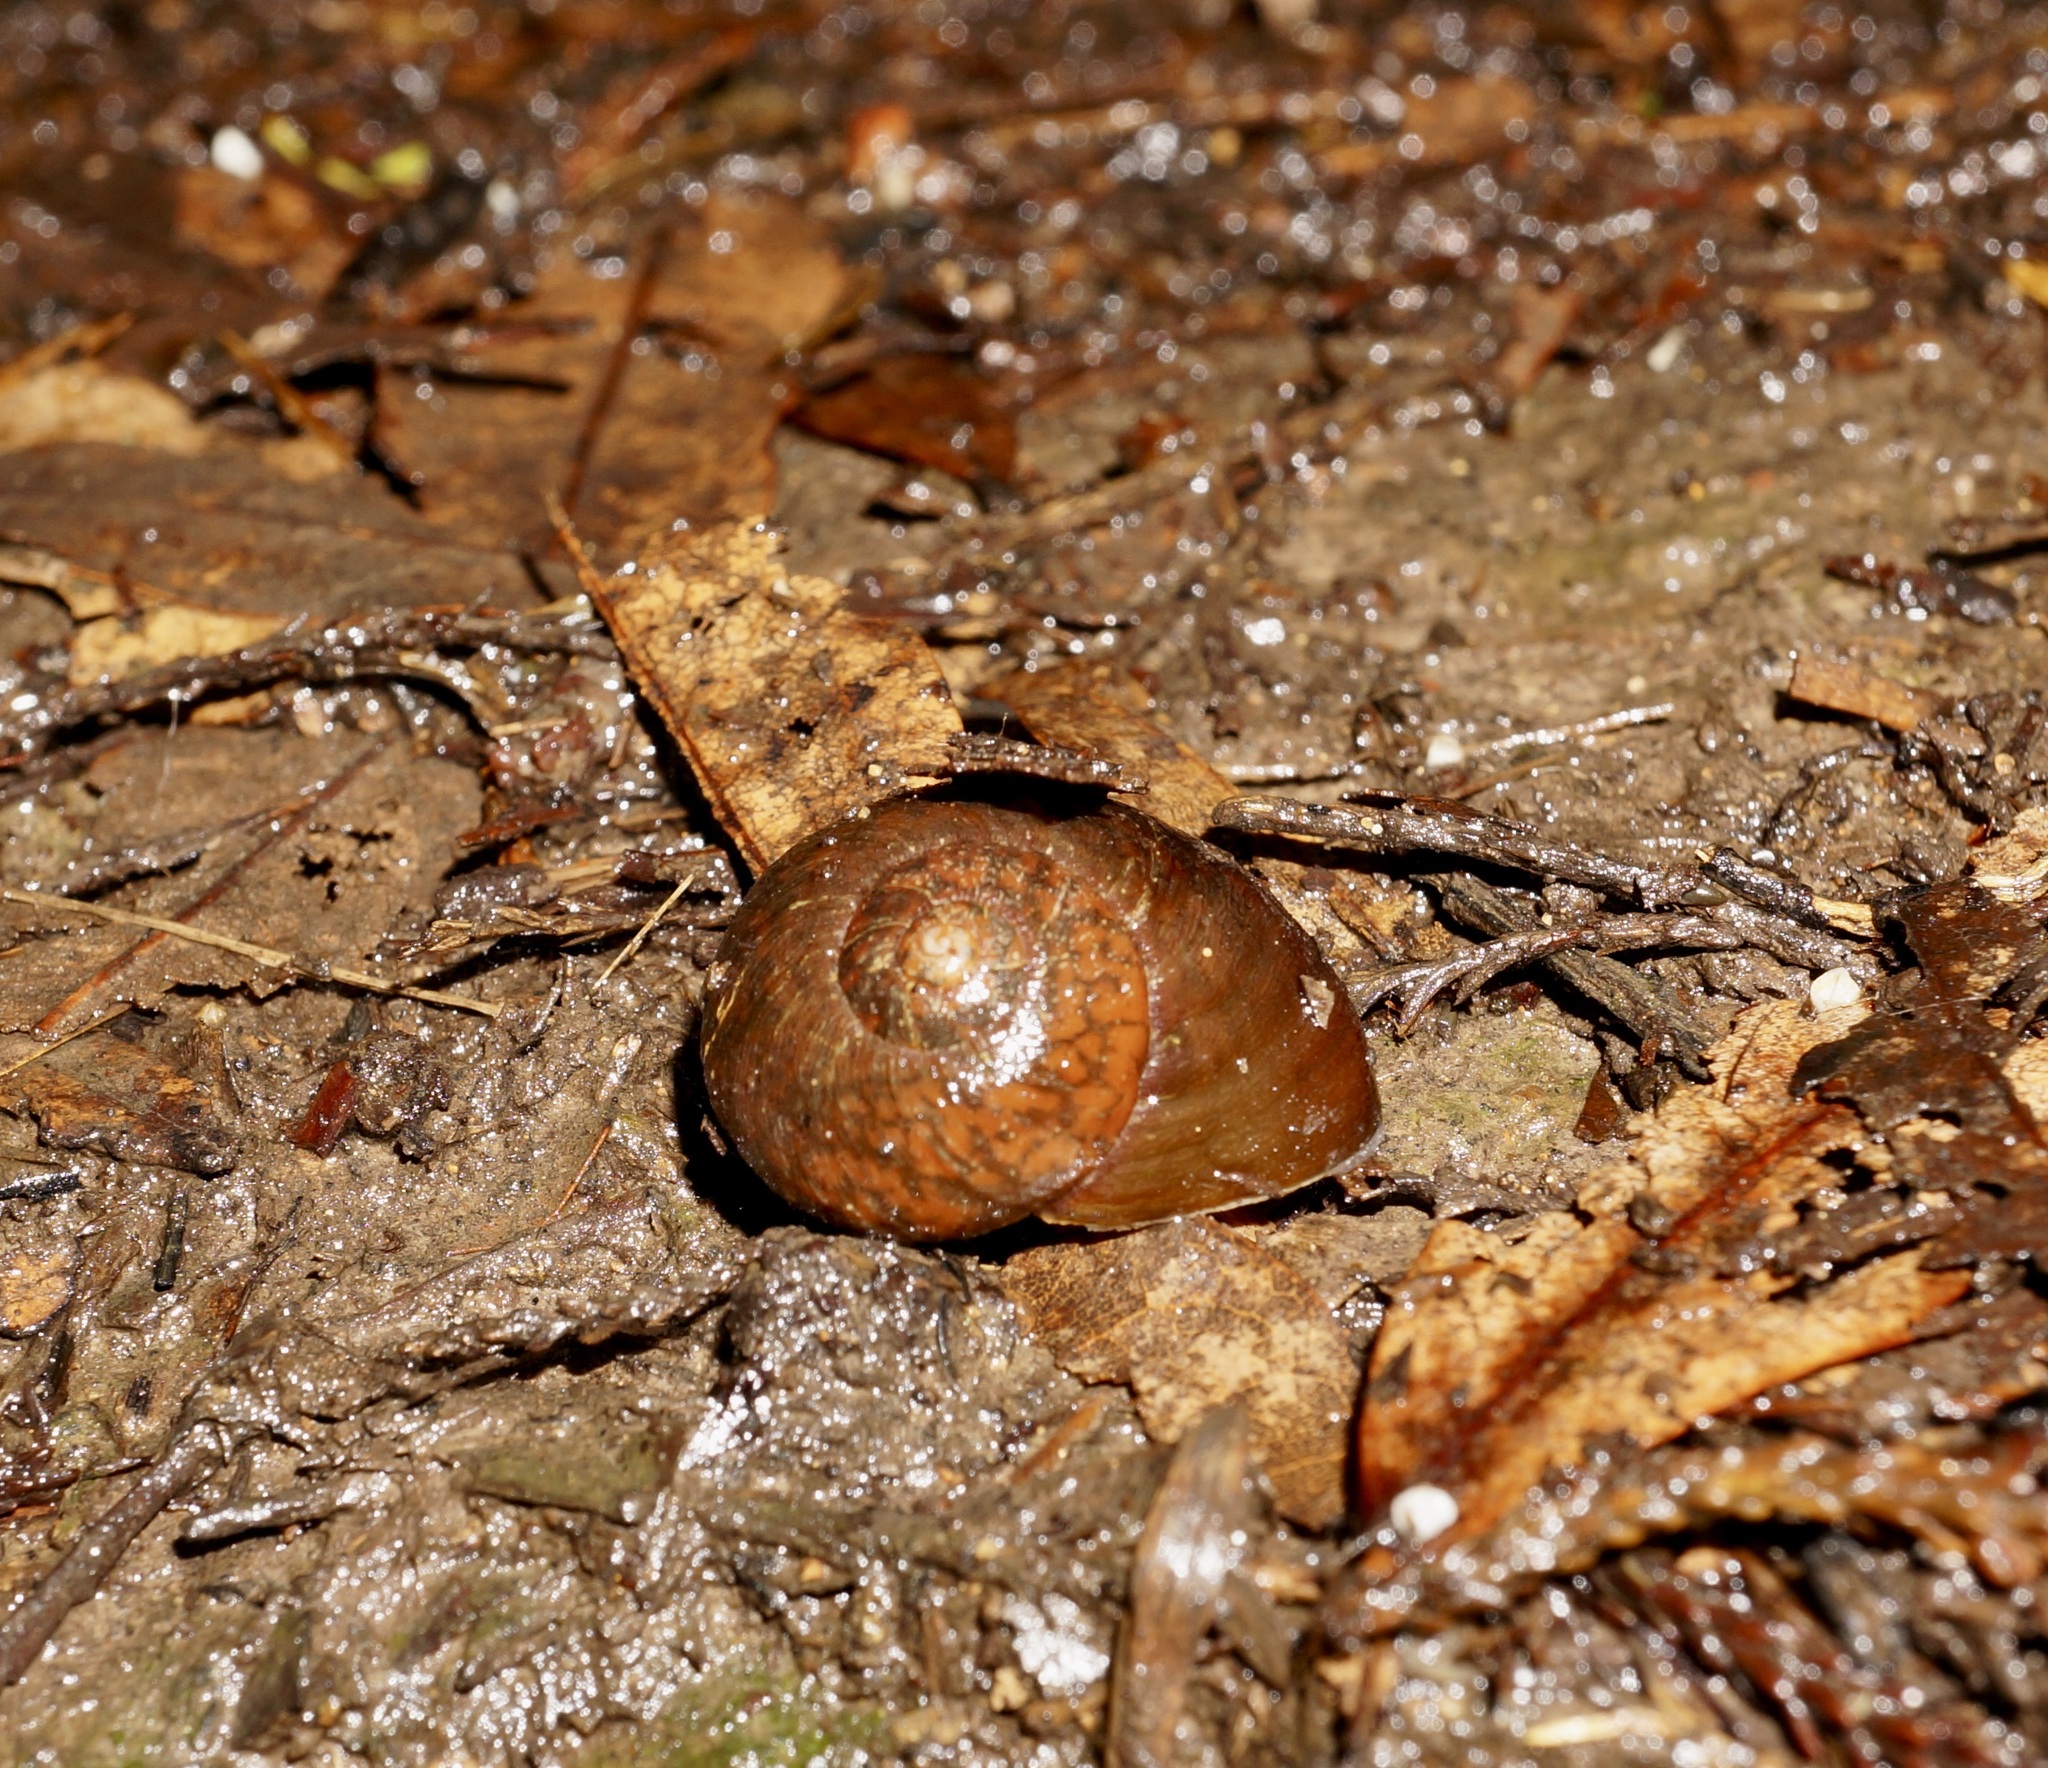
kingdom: Animalia
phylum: Mollusca
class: Gastropoda
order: Stylommatophora
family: Rhytididae
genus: Rhytida
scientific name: Rhytida greenwoodi
